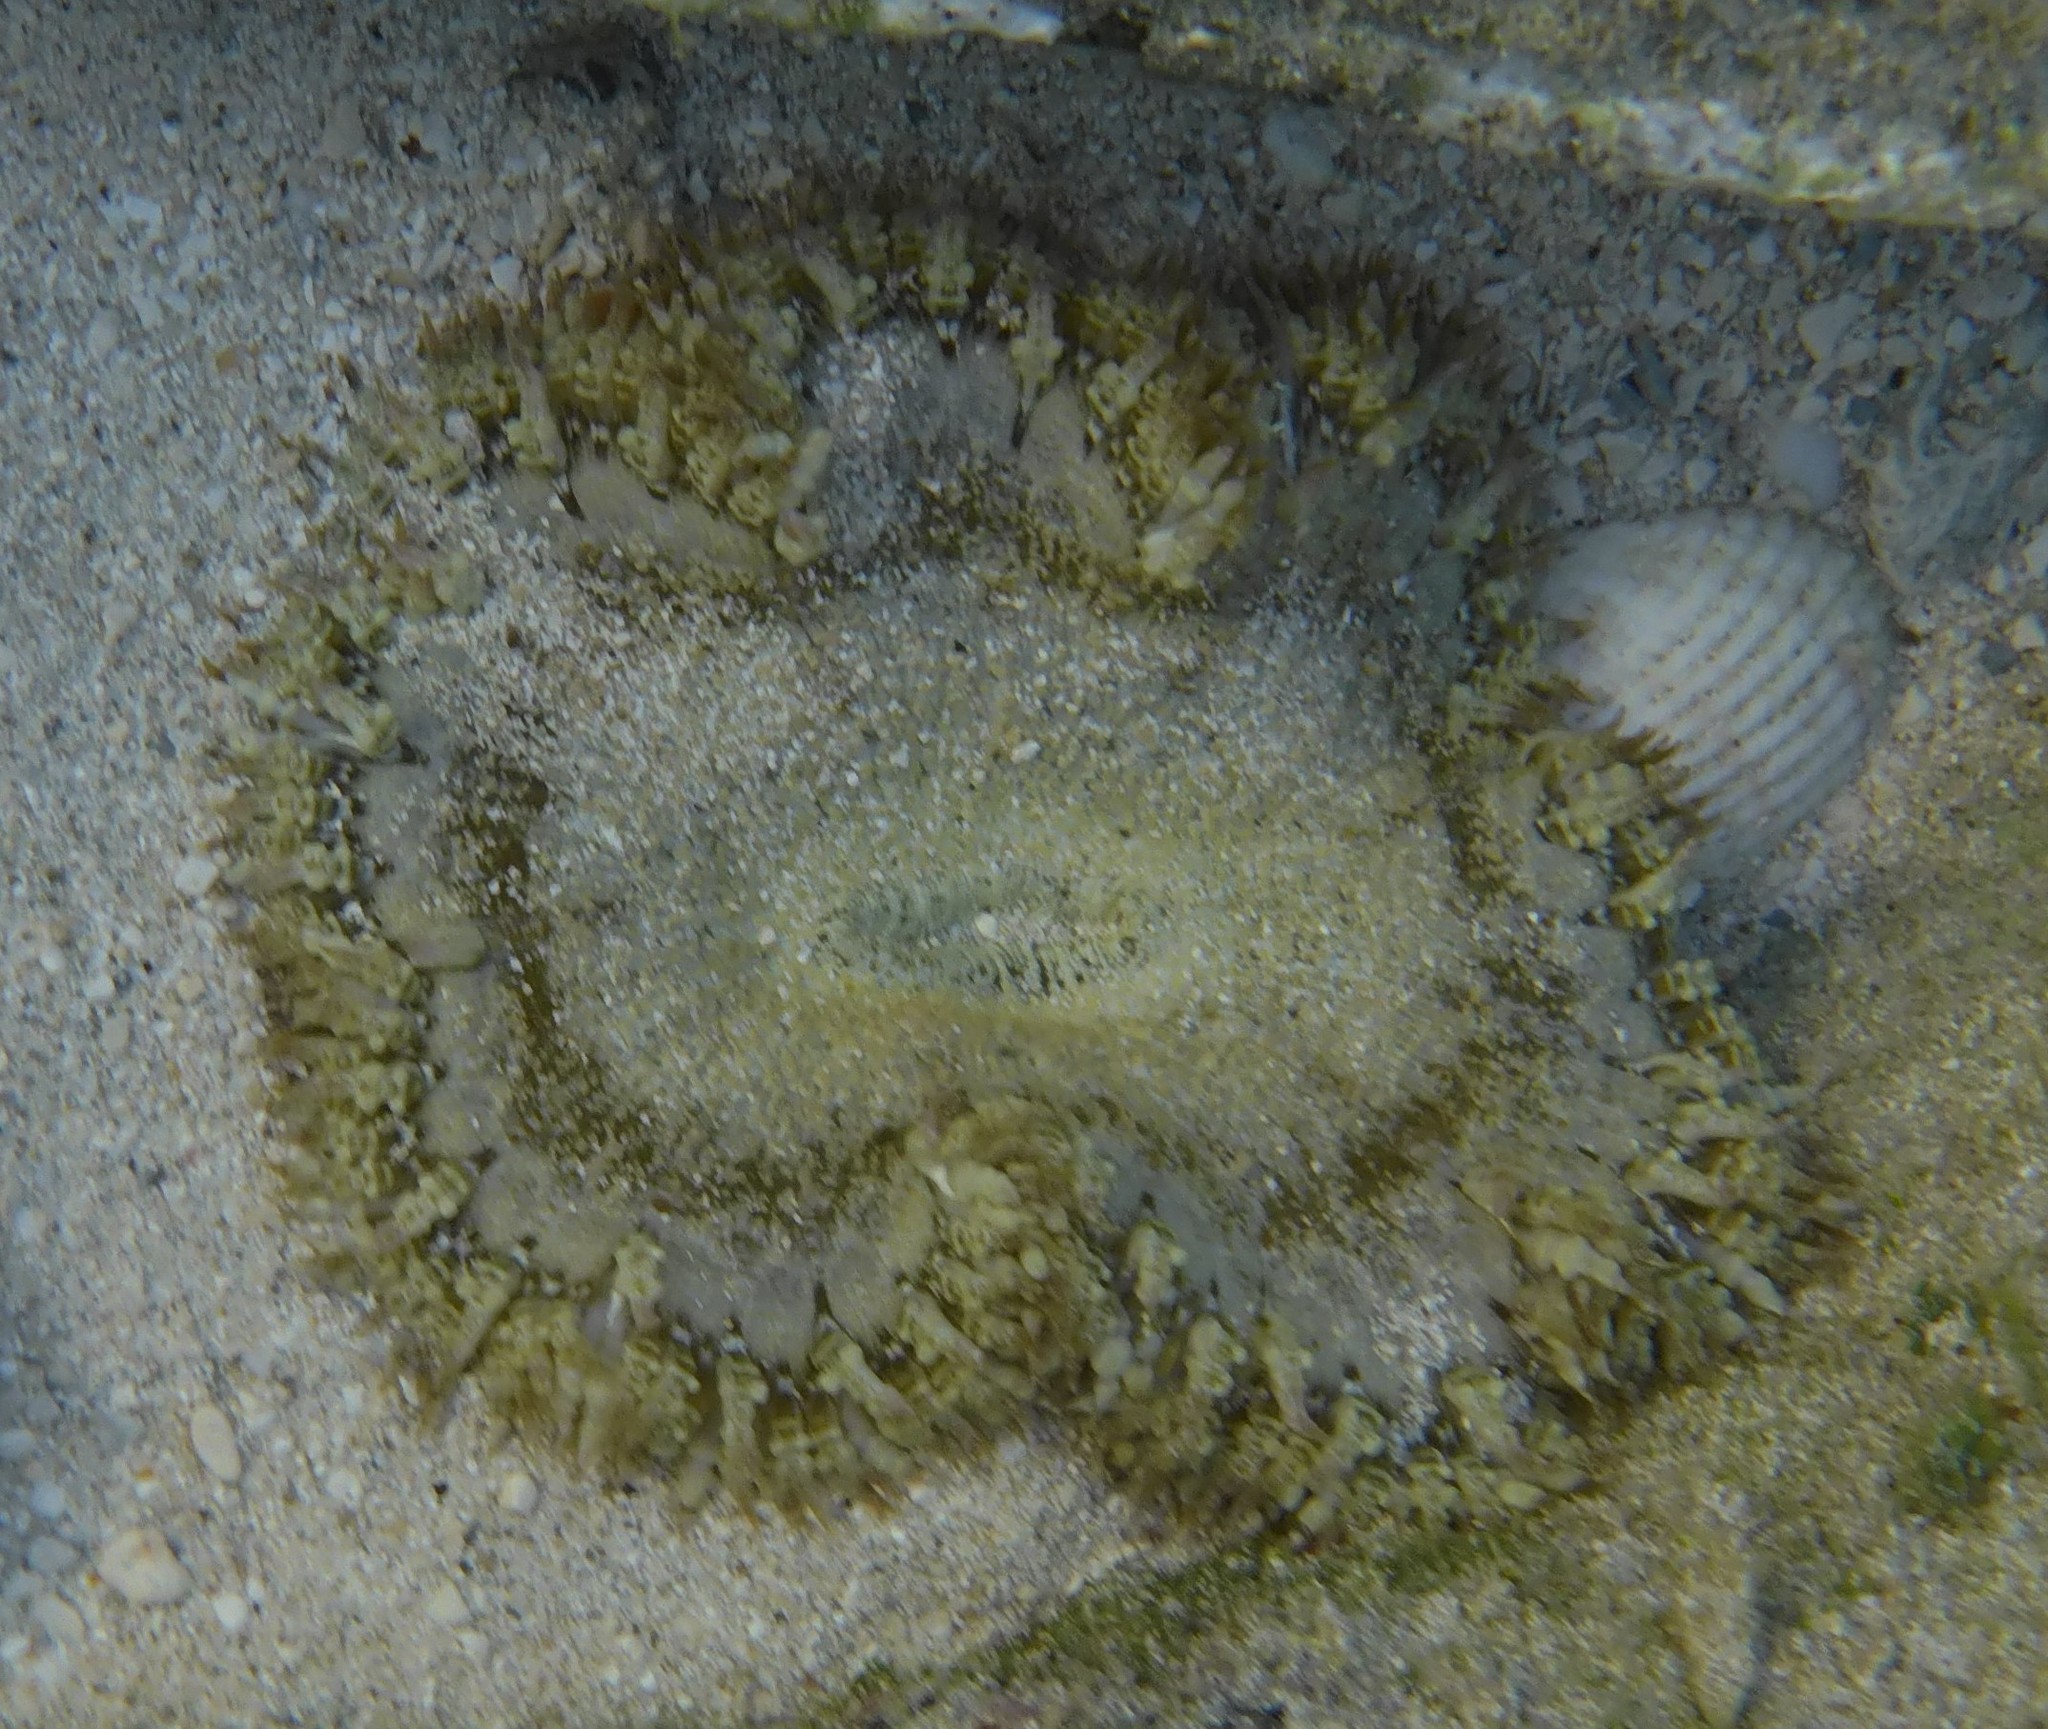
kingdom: Animalia
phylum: Cnidaria
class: Anthozoa
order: Actiniaria
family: Phymanthidae
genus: Phymanthus
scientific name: Phymanthus crucifer
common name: Red beaded anemone
